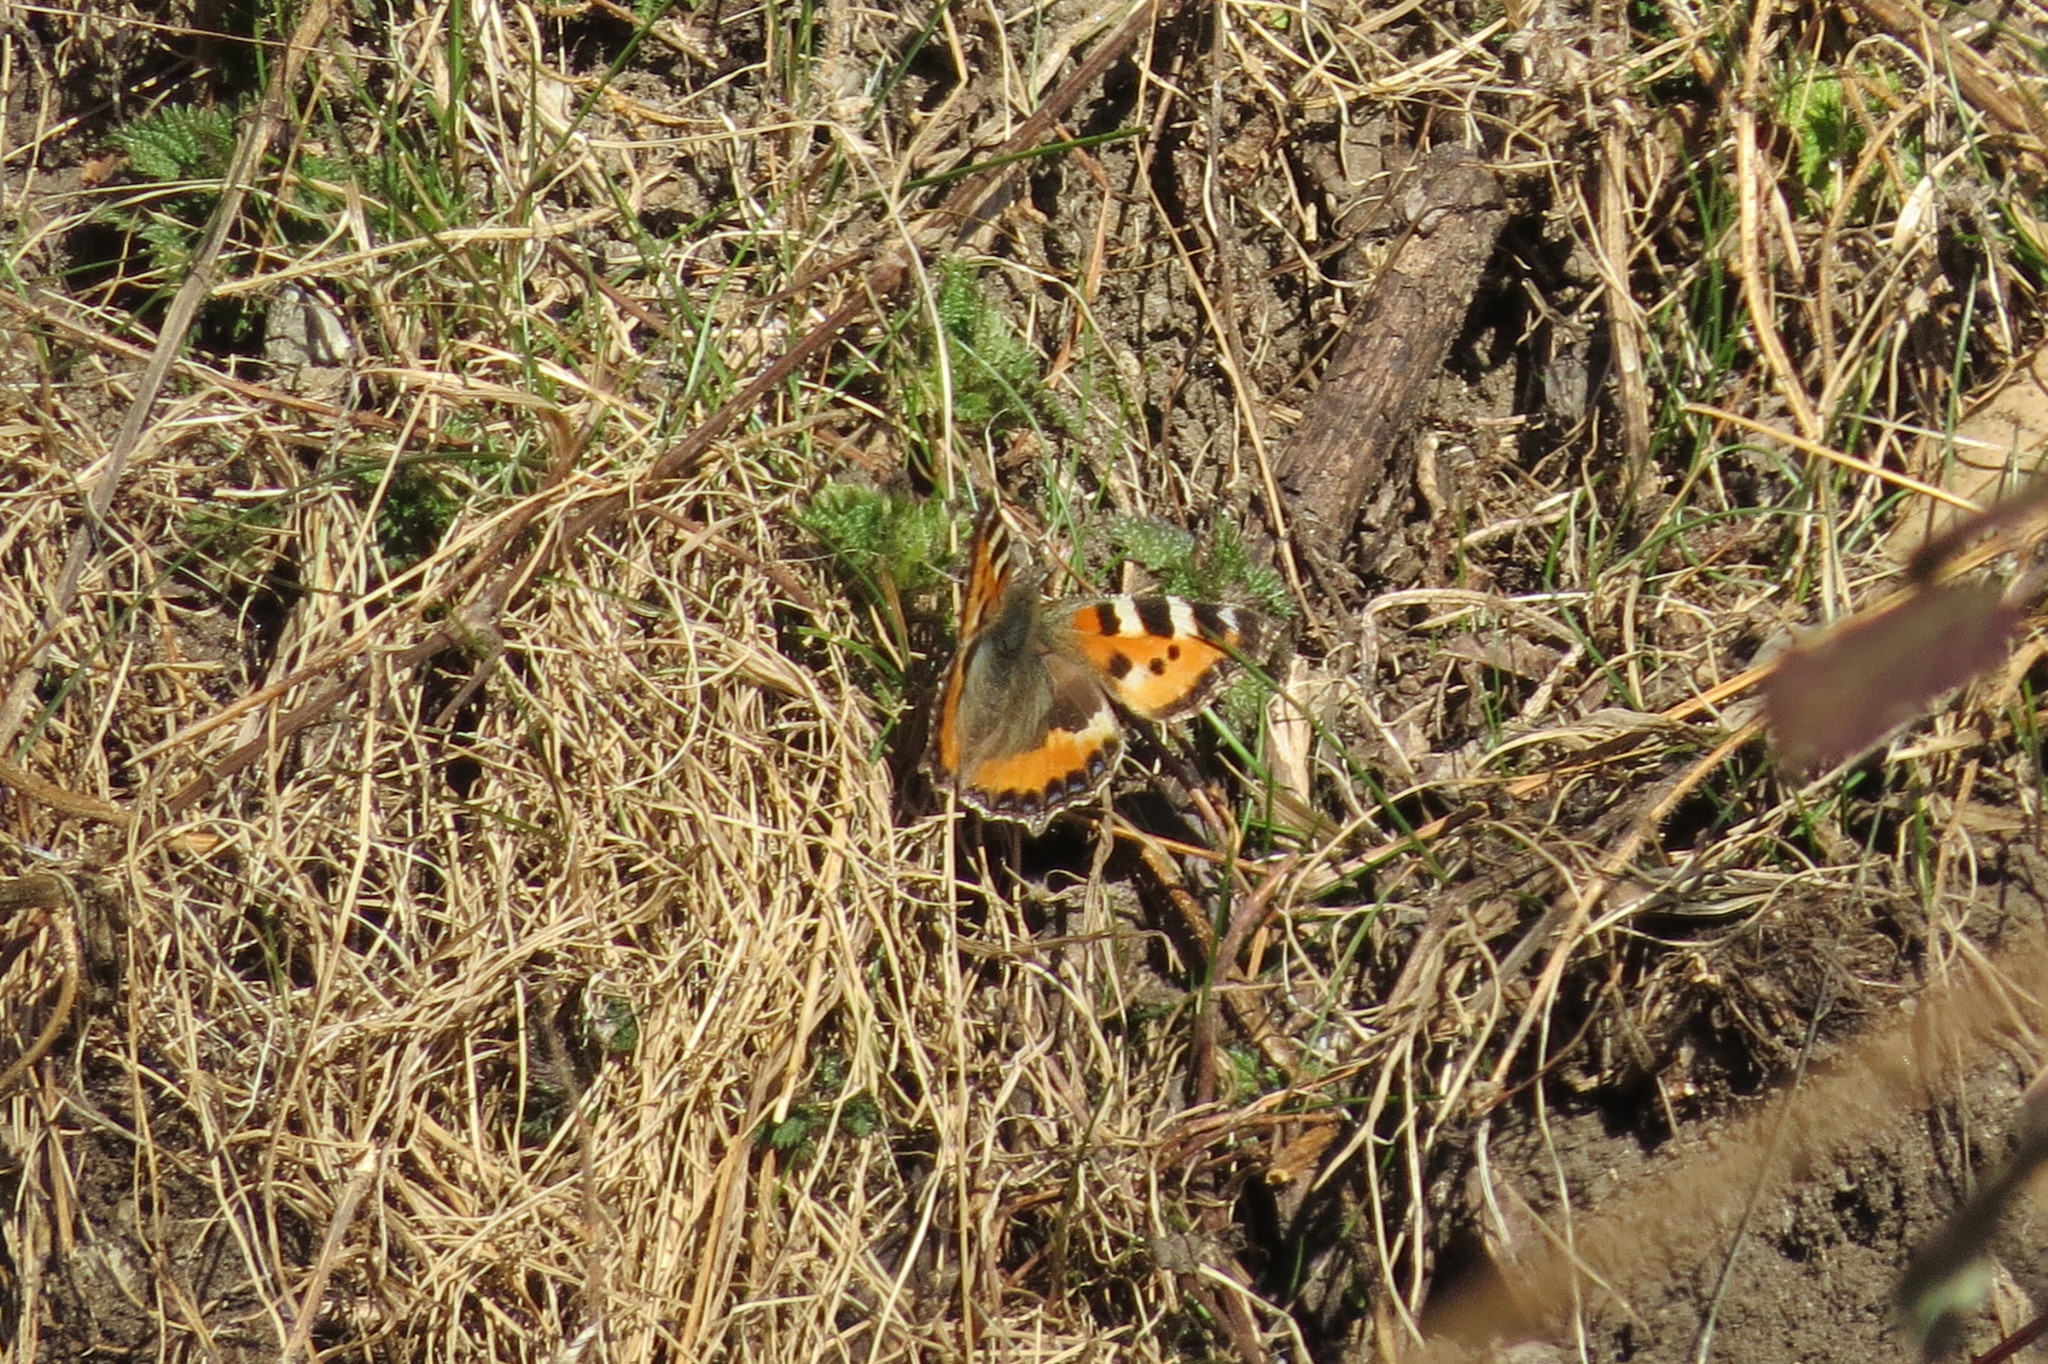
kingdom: Animalia
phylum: Arthropoda
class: Insecta
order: Lepidoptera
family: Nymphalidae
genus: Aglais
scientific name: Aglais urticae
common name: Small tortoiseshell
